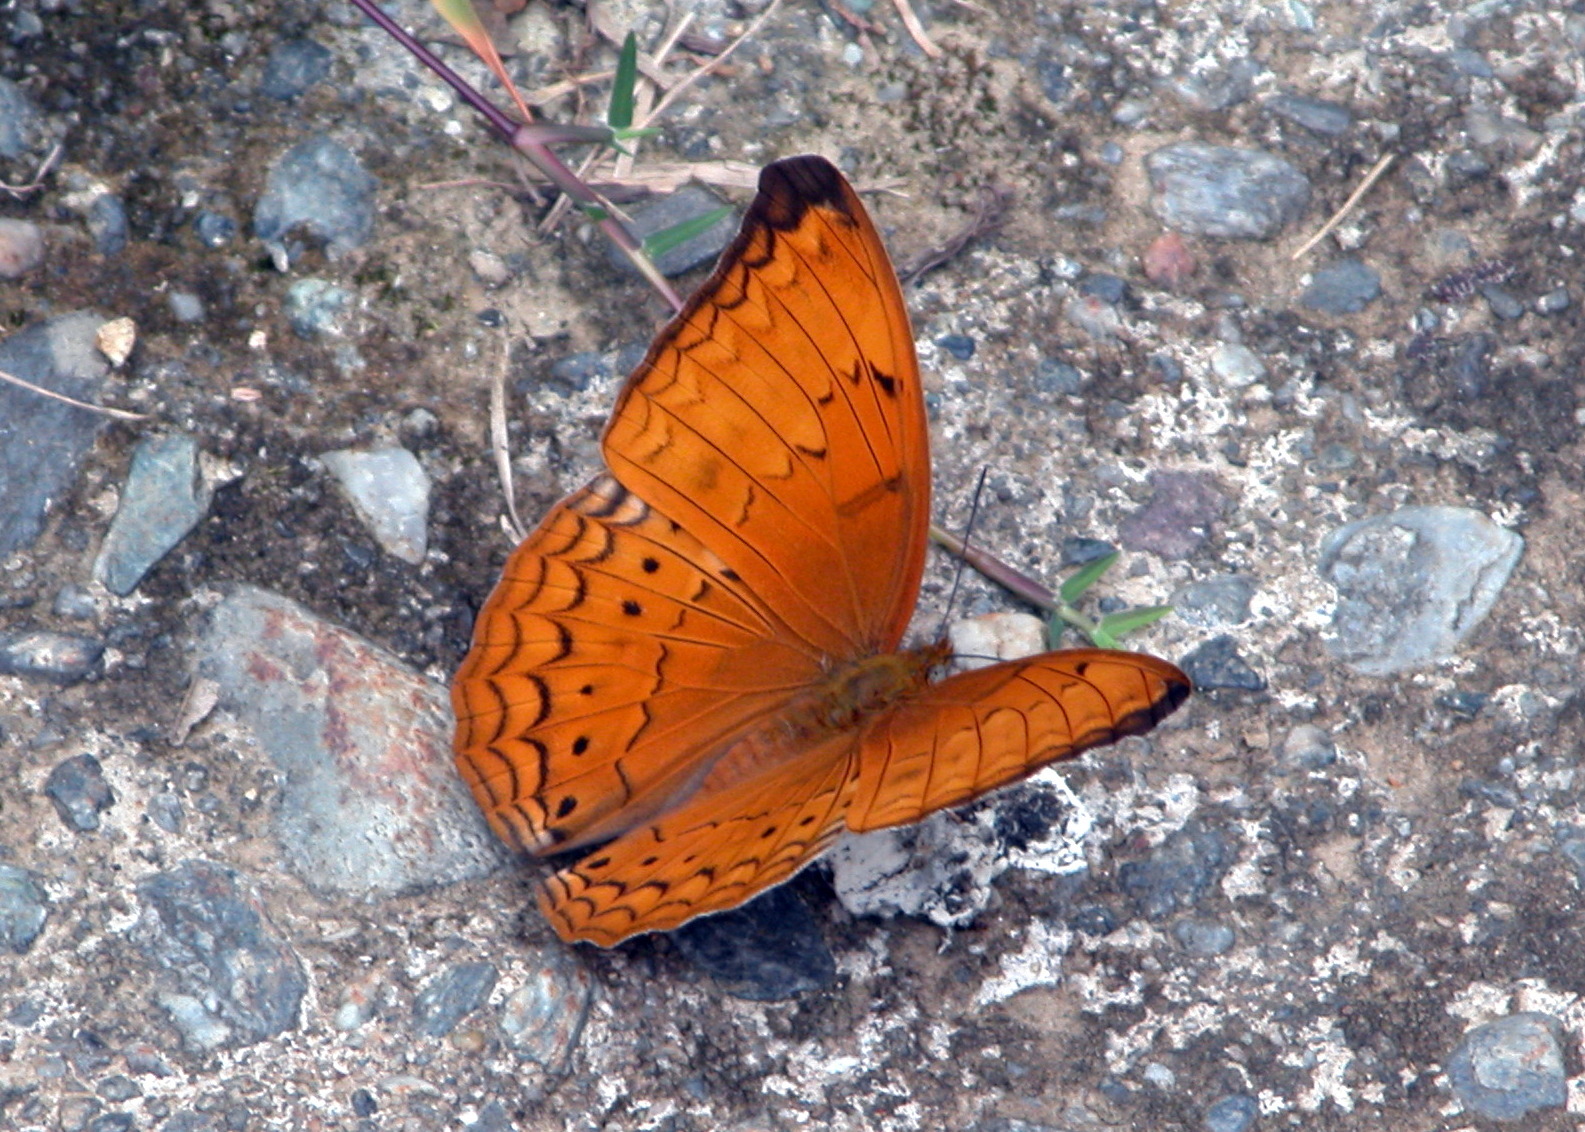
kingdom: Animalia
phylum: Arthropoda
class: Insecta
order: Lepidoptera
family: Nymphalidae
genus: Cirrochroa
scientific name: Cirrochroa aoris
